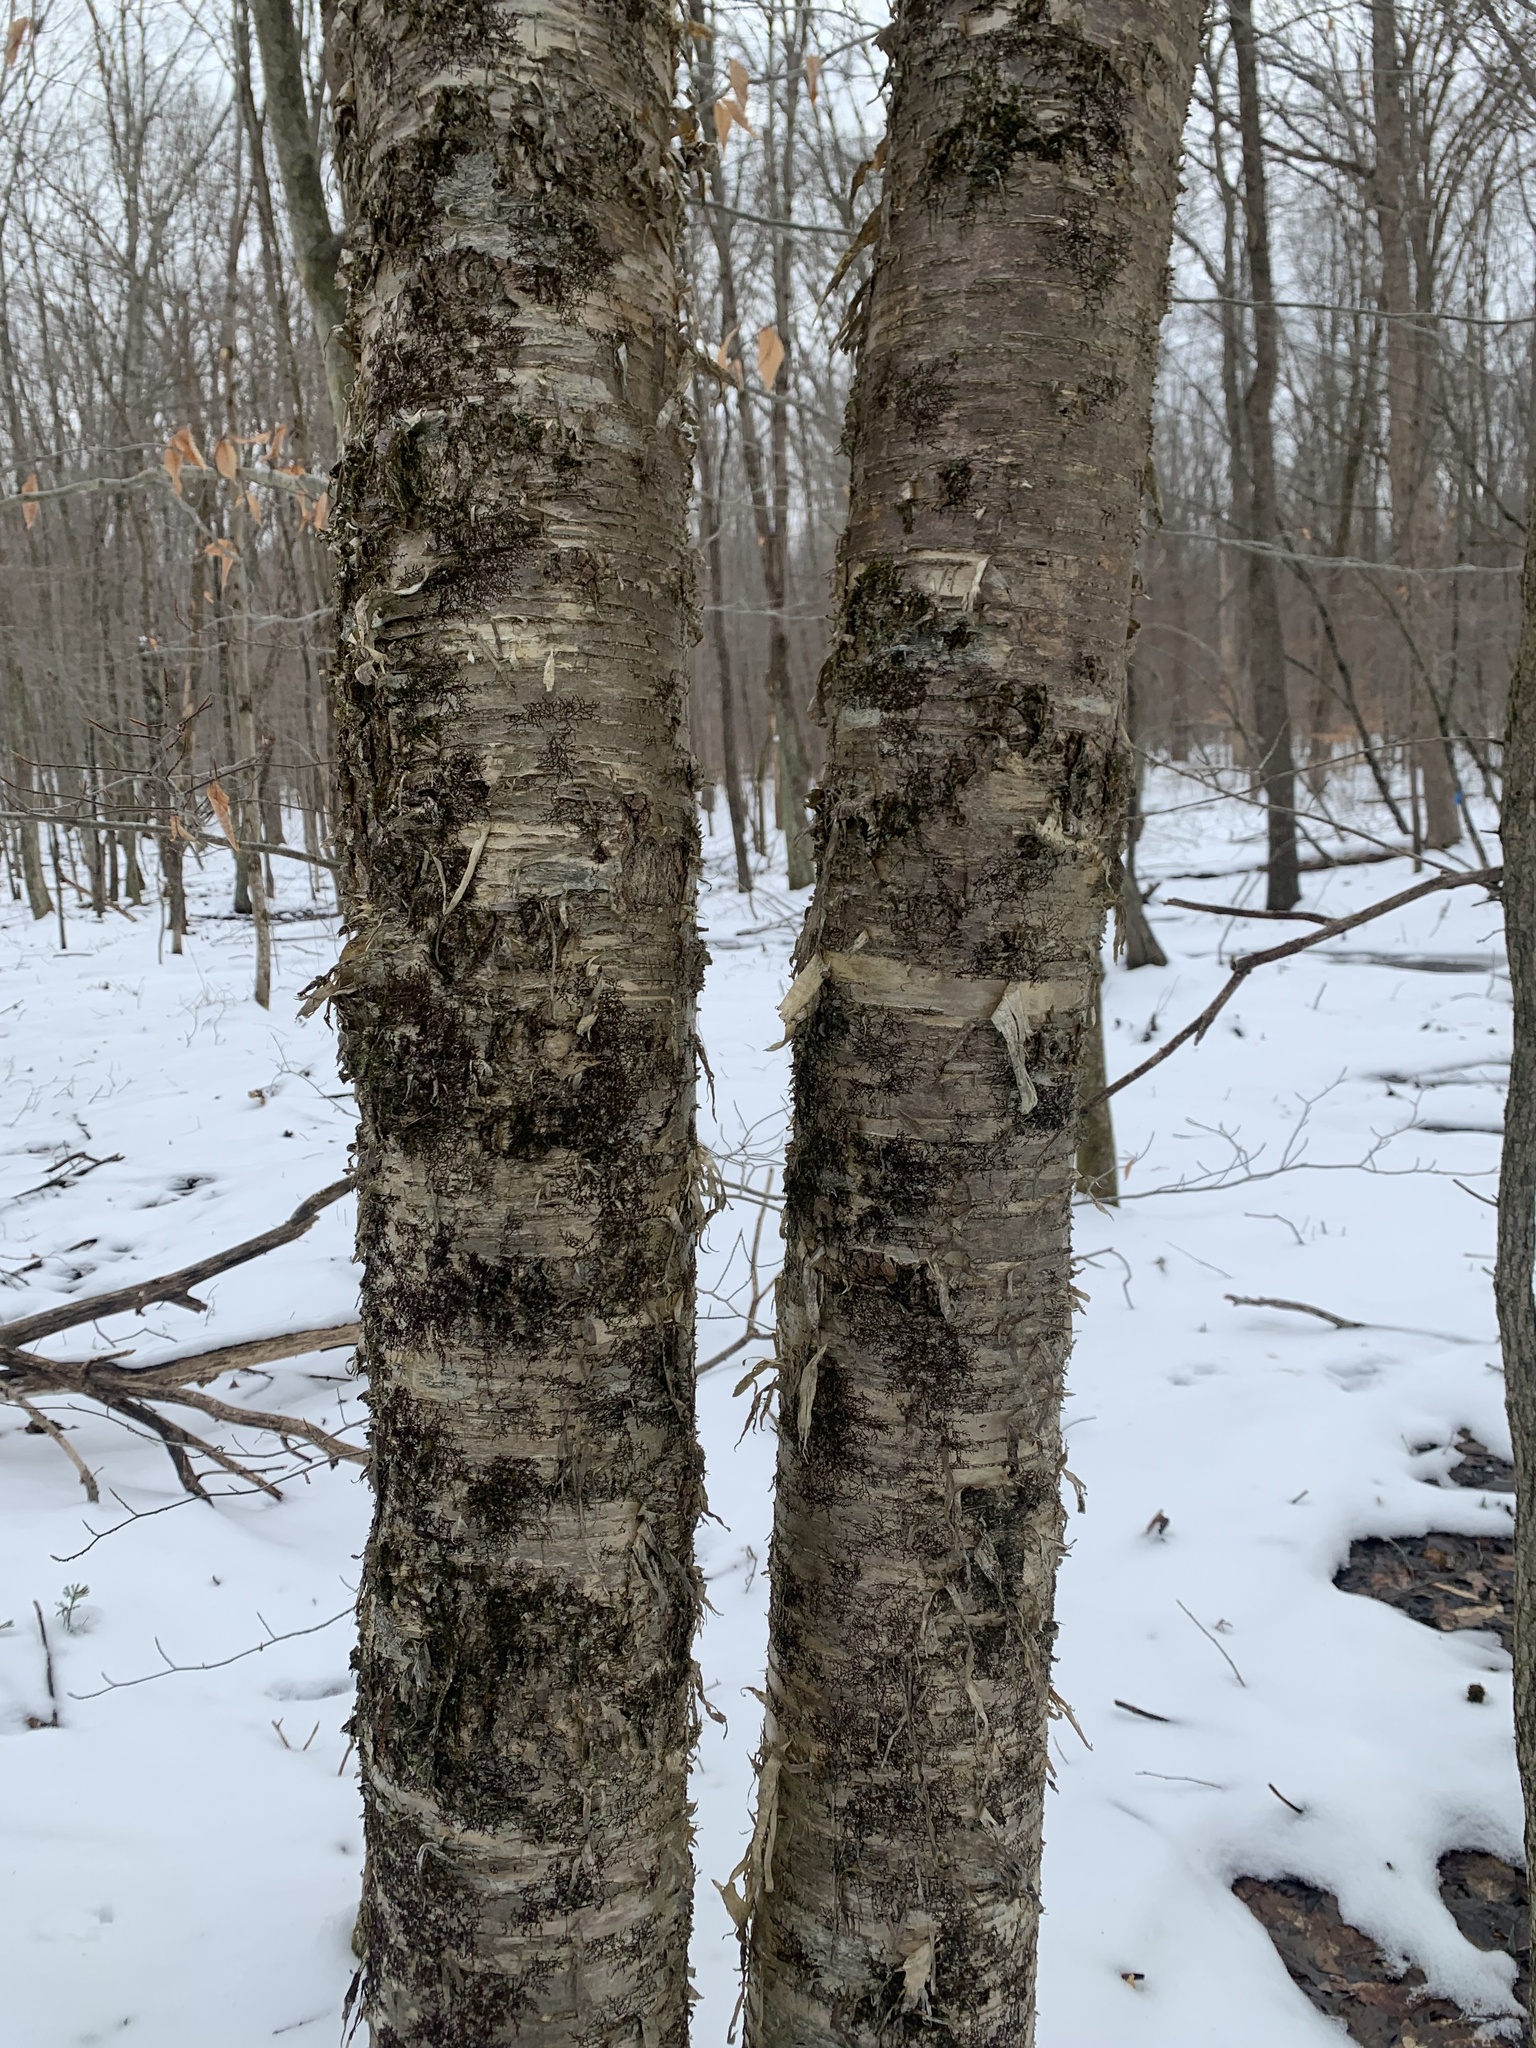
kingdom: Plantae
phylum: Tracheophyta
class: Magnoliopsida
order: Fagales
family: Betulaceae
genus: Betula
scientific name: Betula alleghaniensis
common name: Yellow birch
